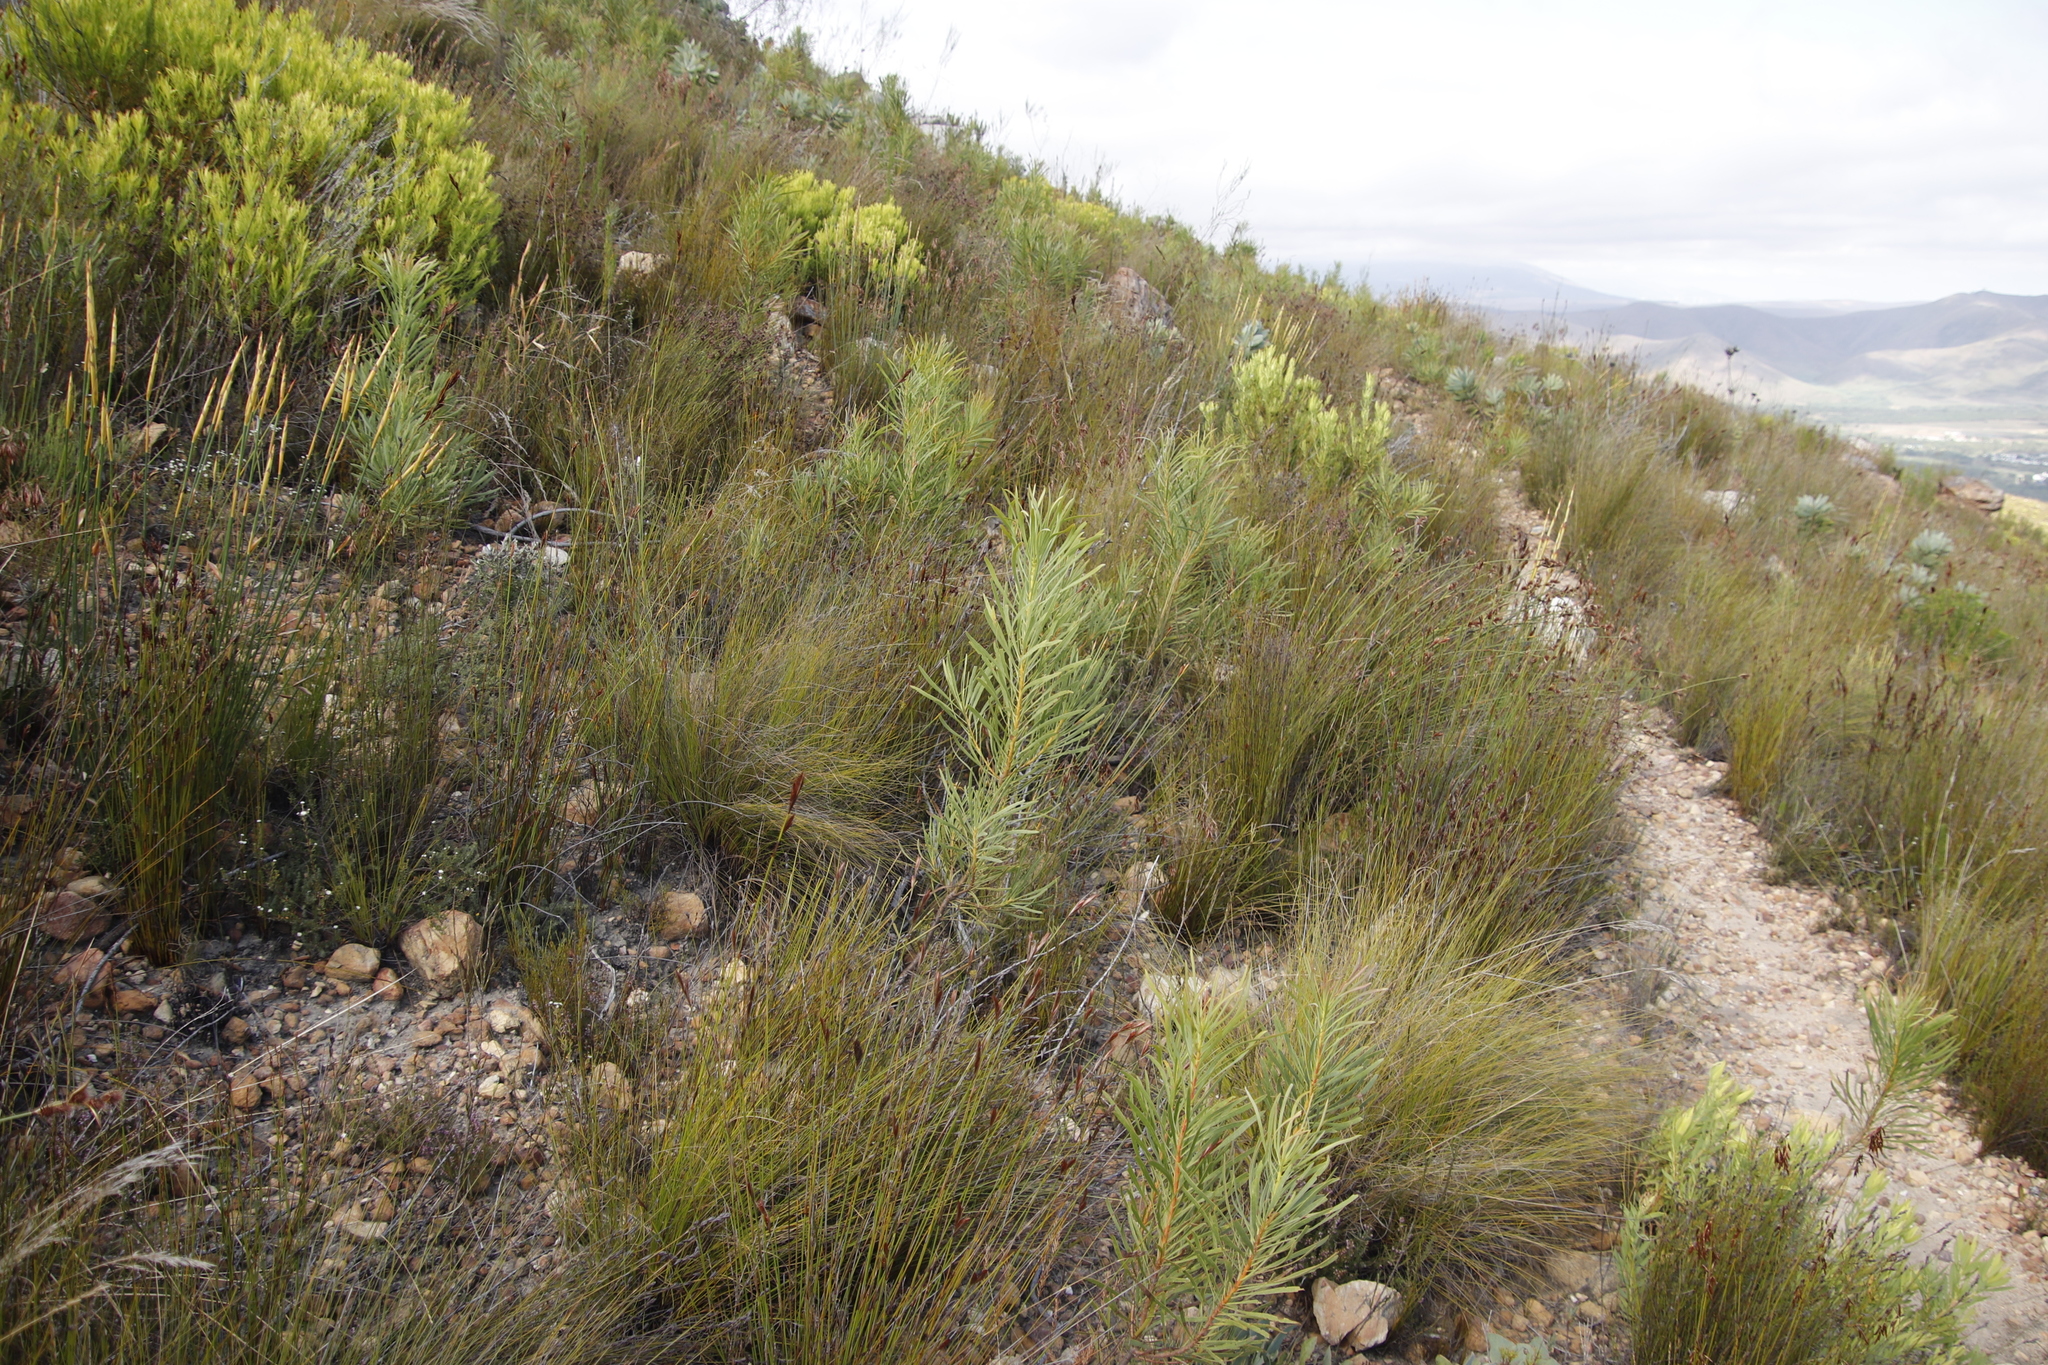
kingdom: Plantae
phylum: Tracheophyta
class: Magnoliopsida
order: Proteales
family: Proteaceae
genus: Protea
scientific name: Protea repens
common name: Sugarbush
